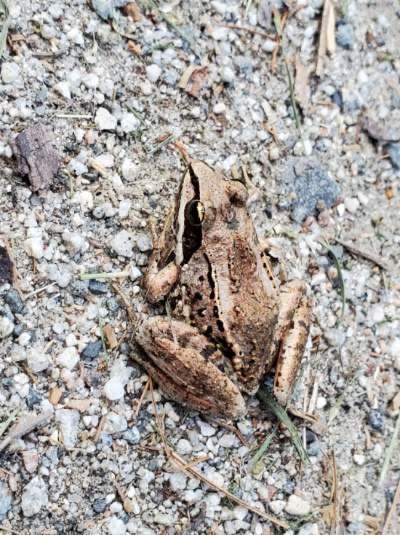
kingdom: Animalia
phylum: Chordata
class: Amphibia
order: Anura
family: Ranidae
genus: Lithobates
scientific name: Lithobates sylvaticus
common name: Wood frog
